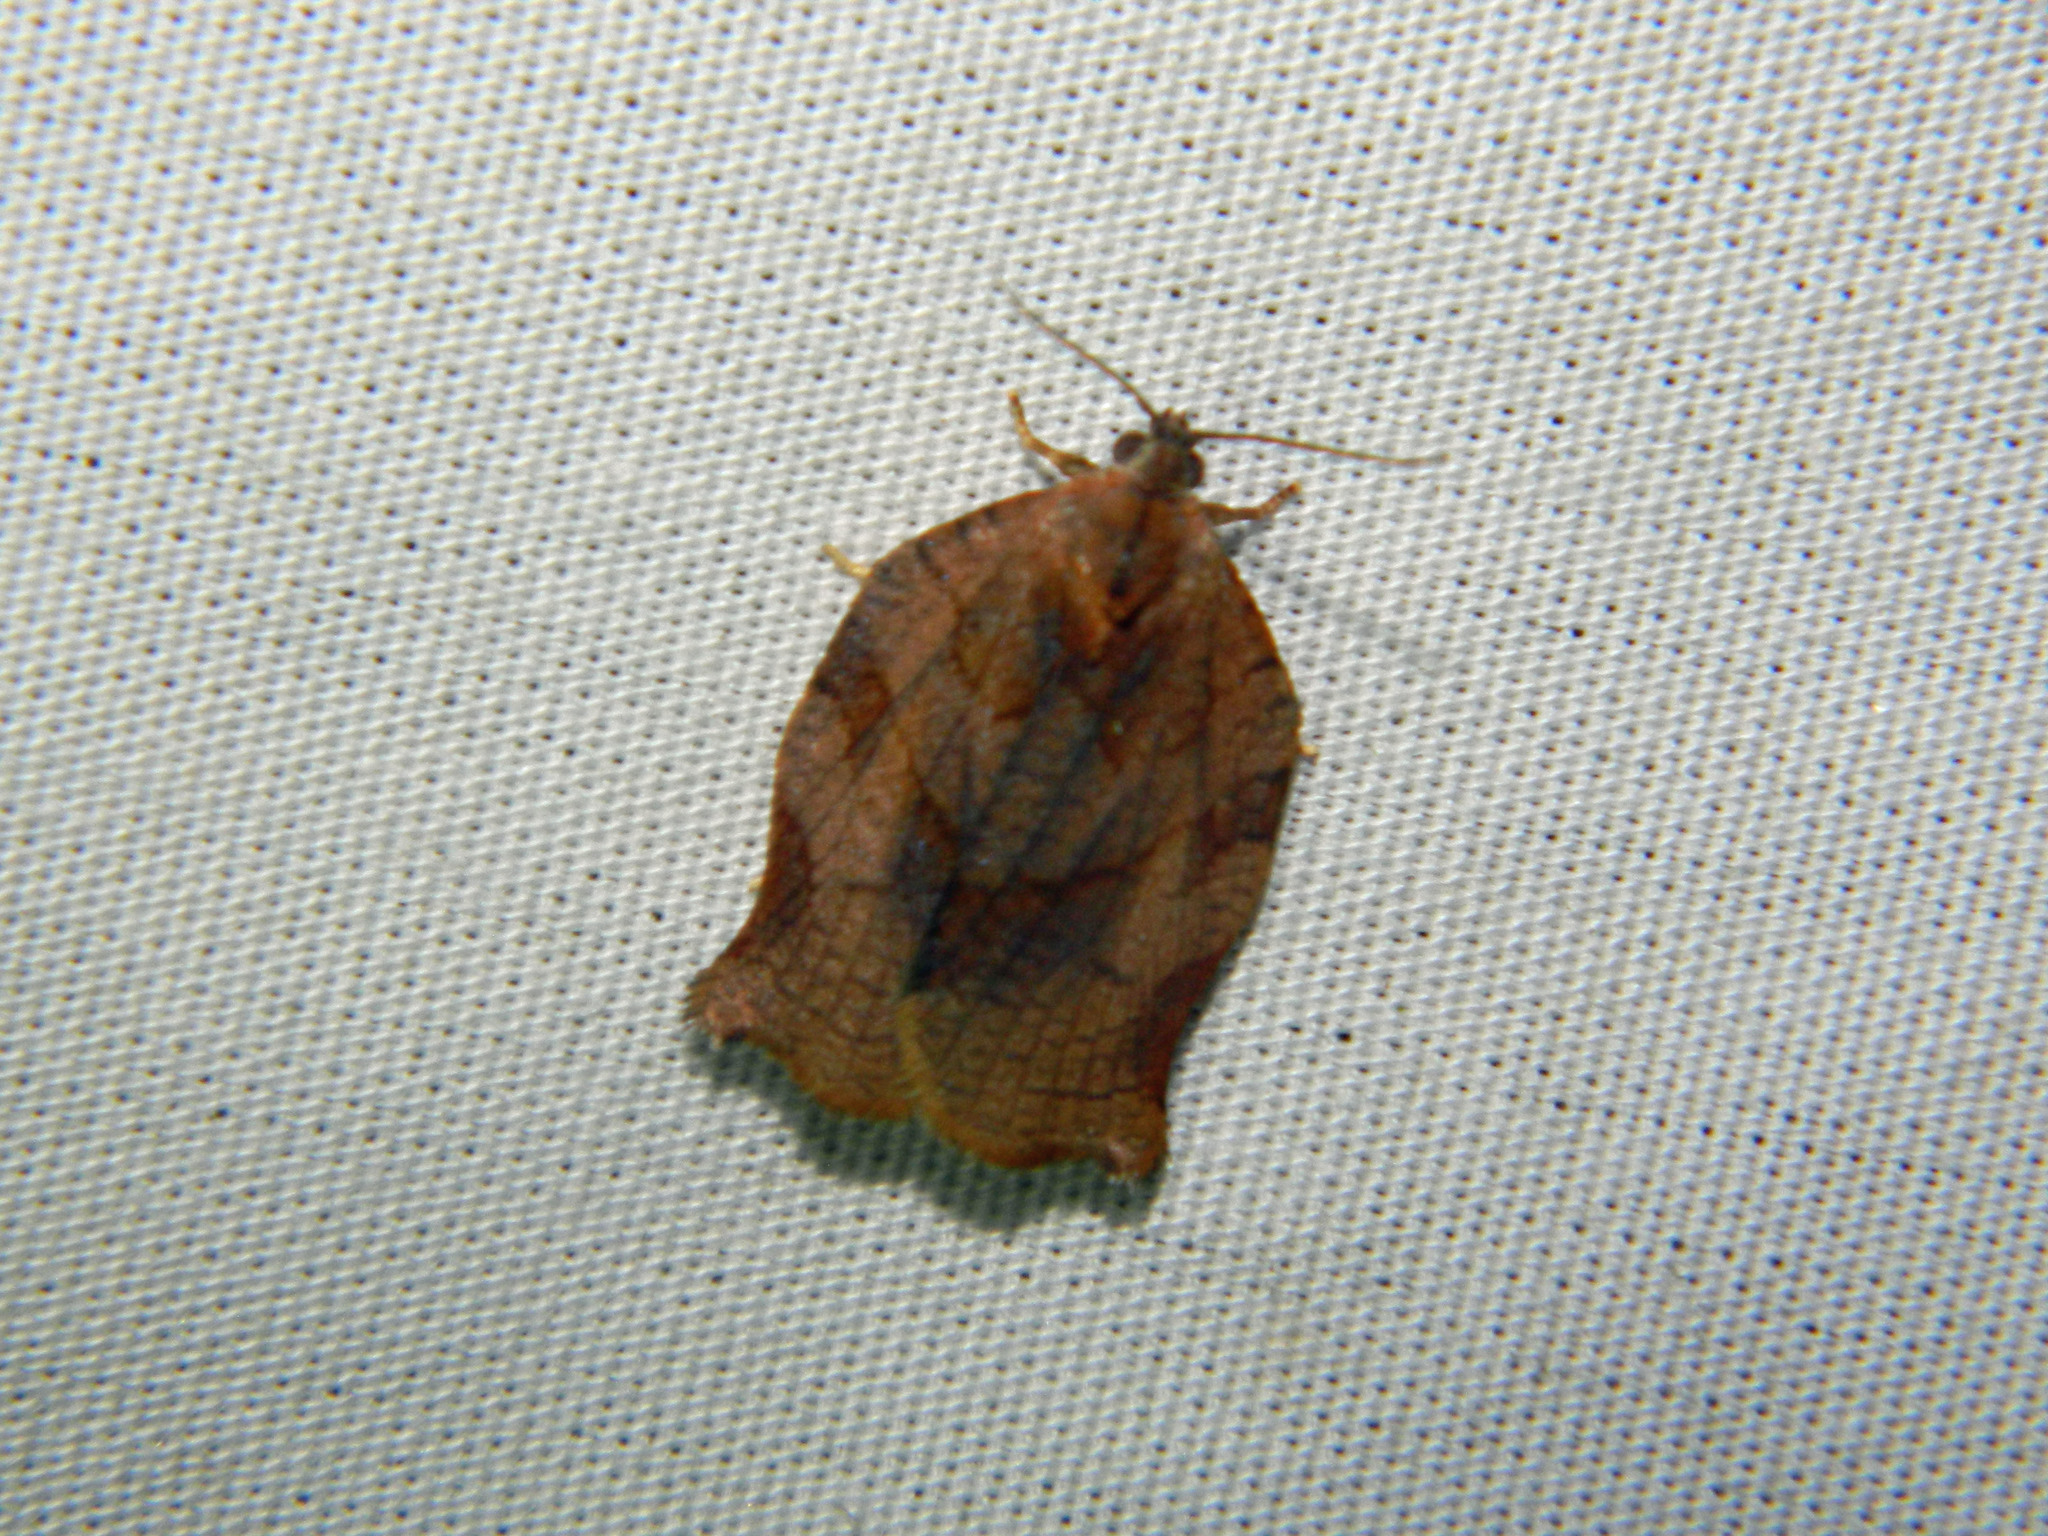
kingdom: Animalia
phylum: Arthropoda
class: Insecta
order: Lepidoptera
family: Tortricidae
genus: Archips
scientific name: Archips purpurana
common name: Omnivorous leafroller
